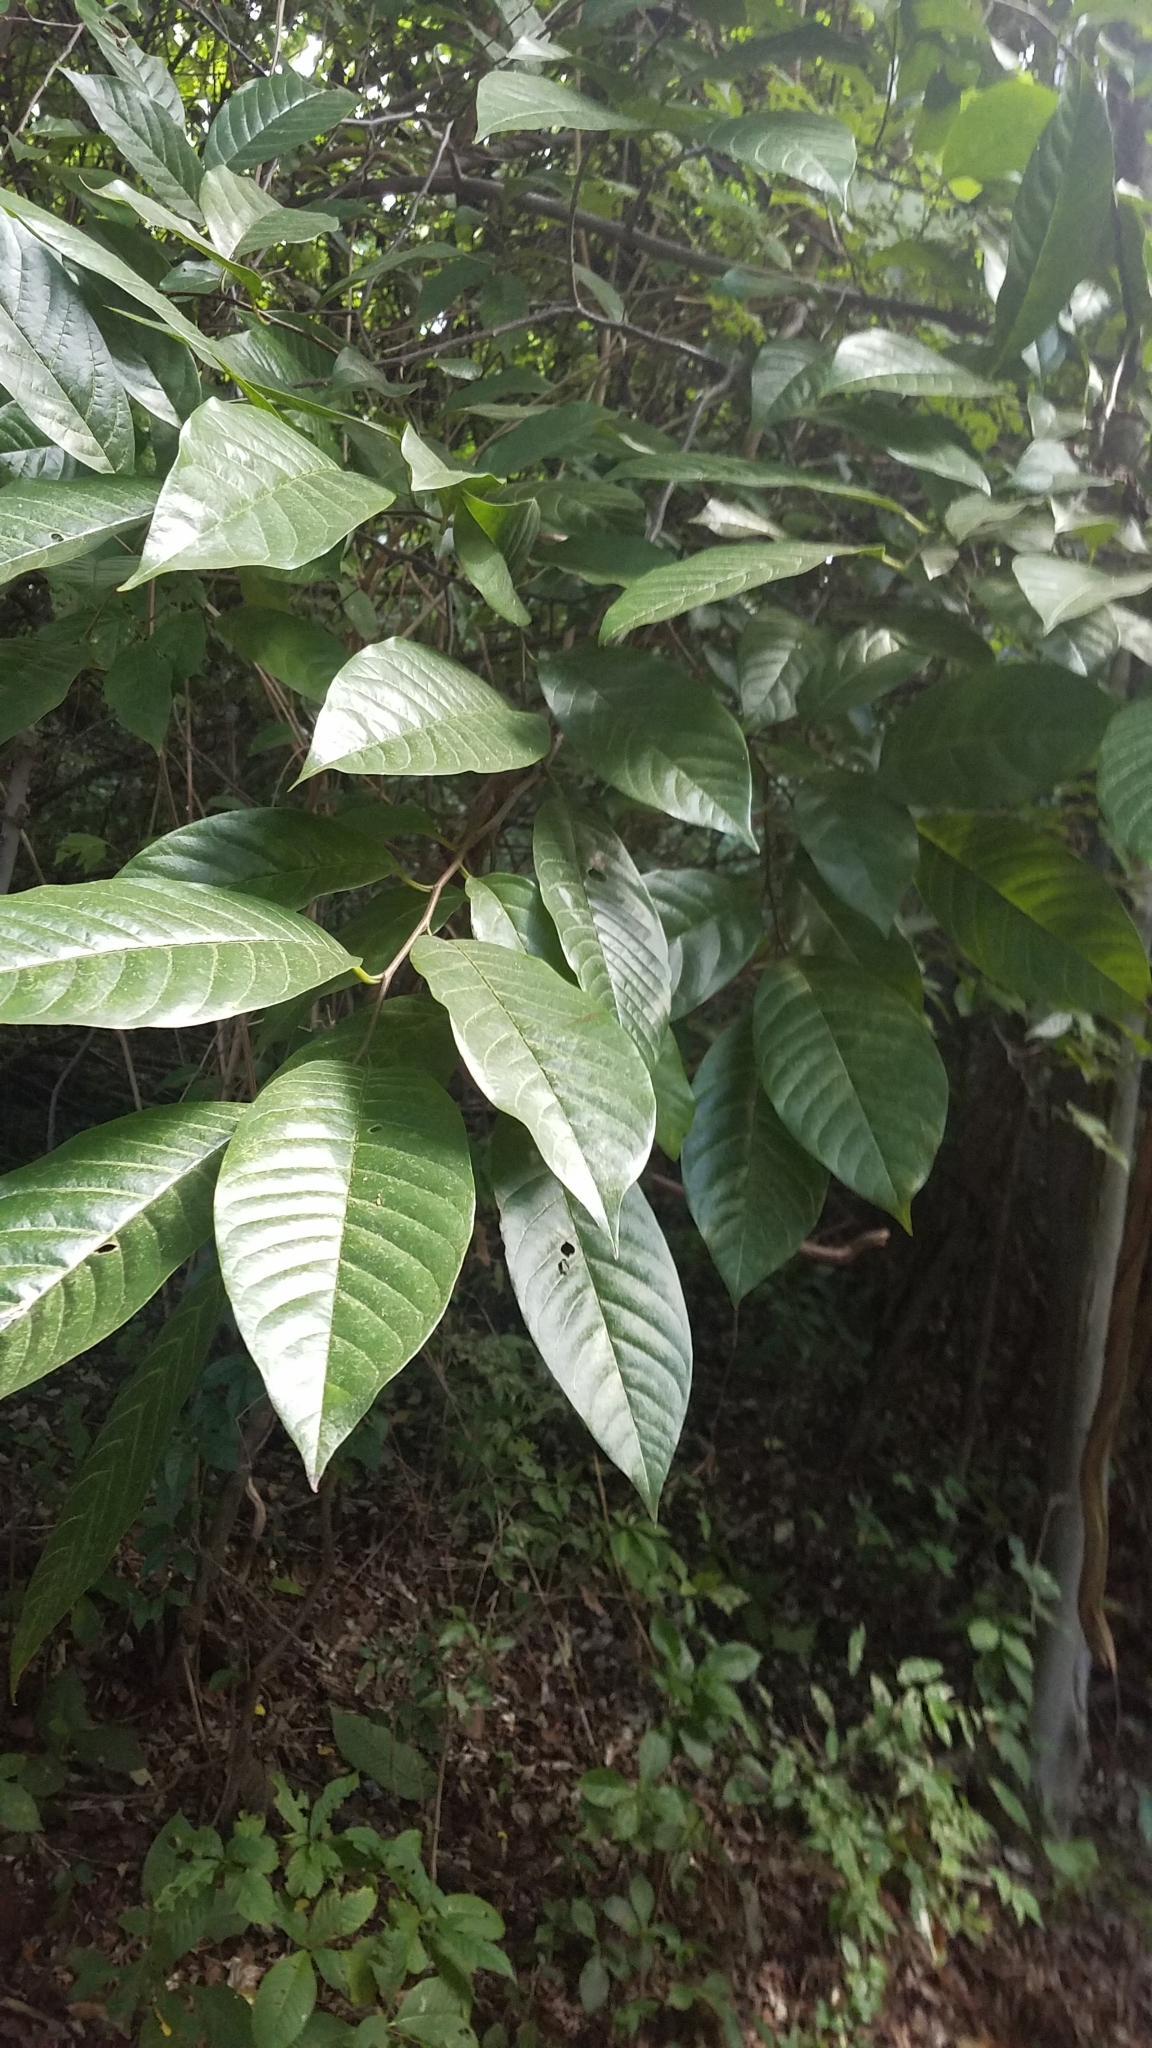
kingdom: Plantae
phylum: Tracheophyta
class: Magnoliopsida
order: Magnoliales
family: Annonaceae
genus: Annona
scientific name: Annona reticulata
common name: Custard apple
